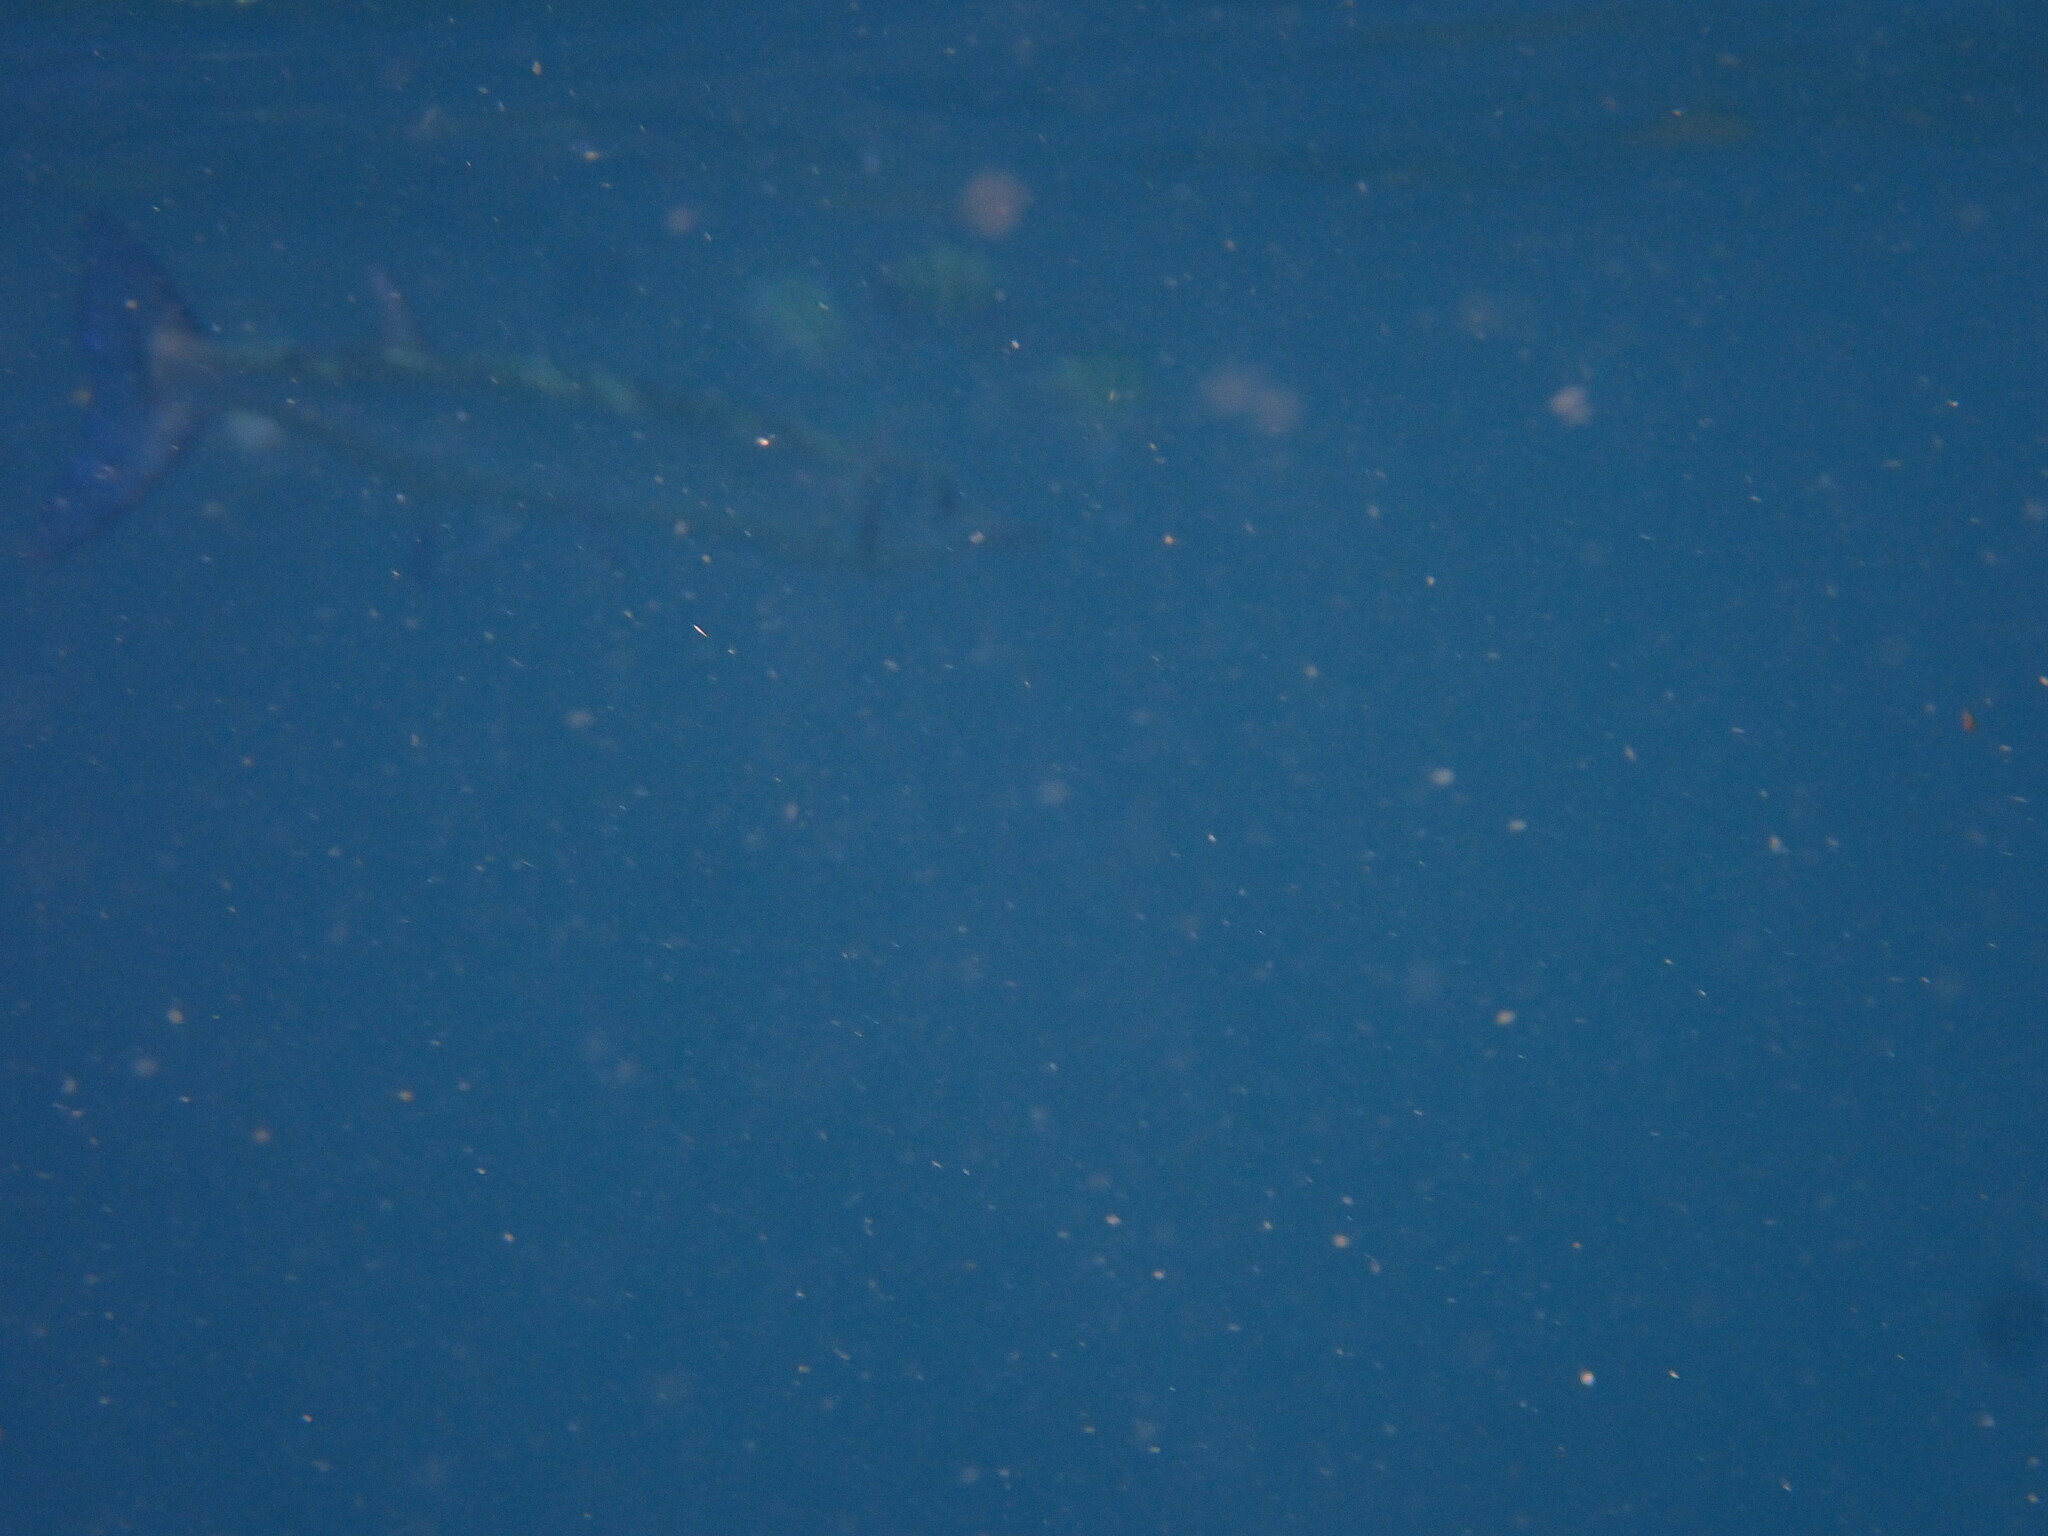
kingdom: Animalia
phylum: Chordata
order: Beloniformes
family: Belonidae
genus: Tylosurus
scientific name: Tylosurus crocodilus
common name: Houndfish
